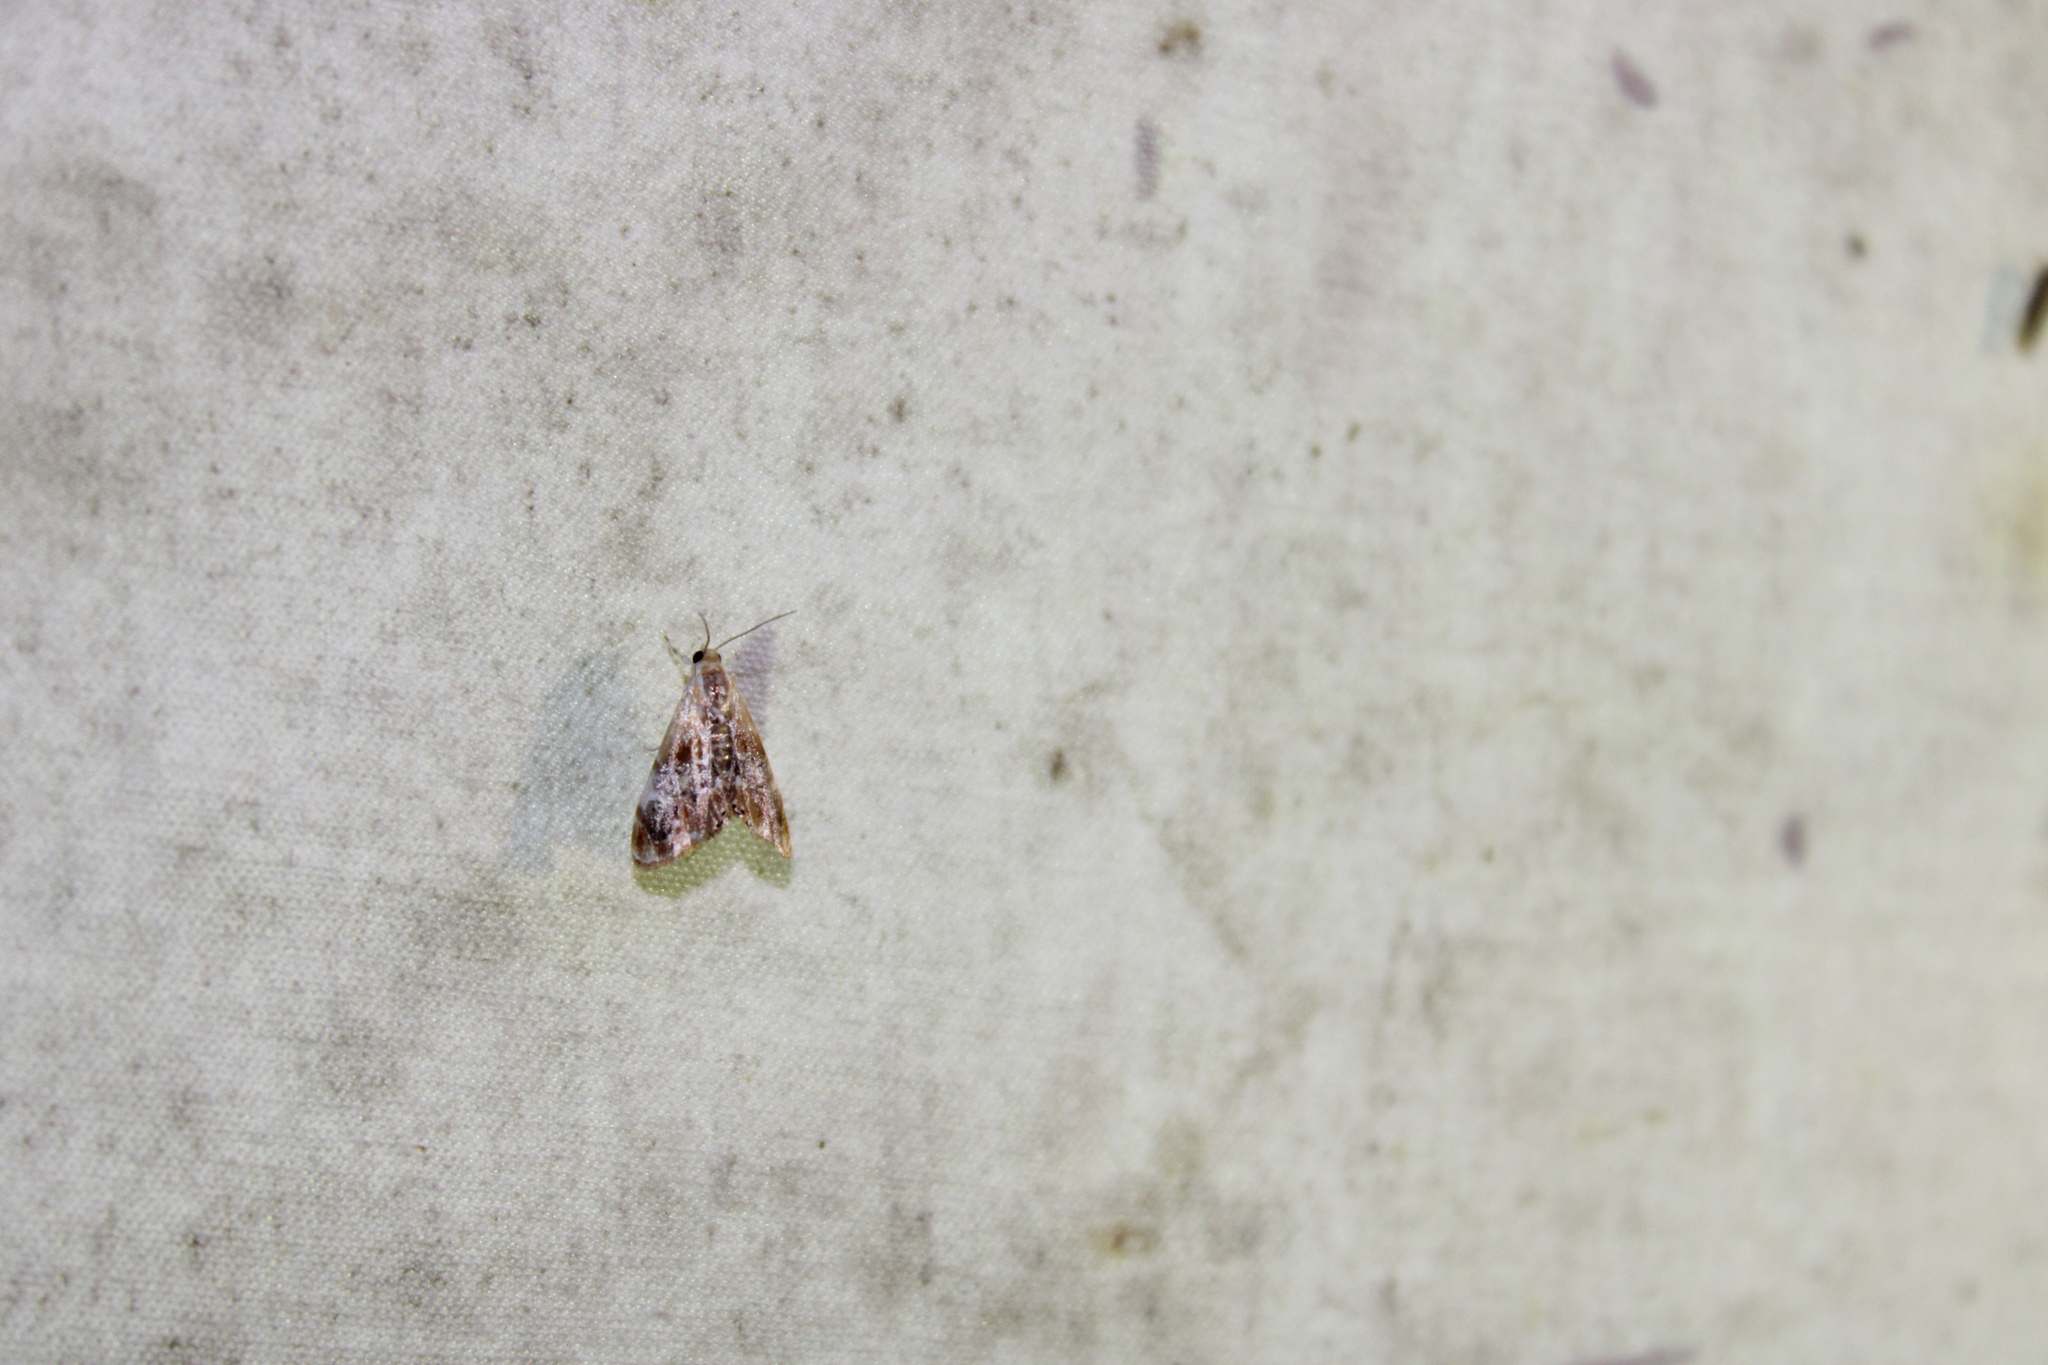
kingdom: Animalia
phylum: Arthropoda
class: Insecta
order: Lepidoptera
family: Crambidae
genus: Dicymolomia
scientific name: Dicymolomia julianalis
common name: Julia's dicymolomia moth
